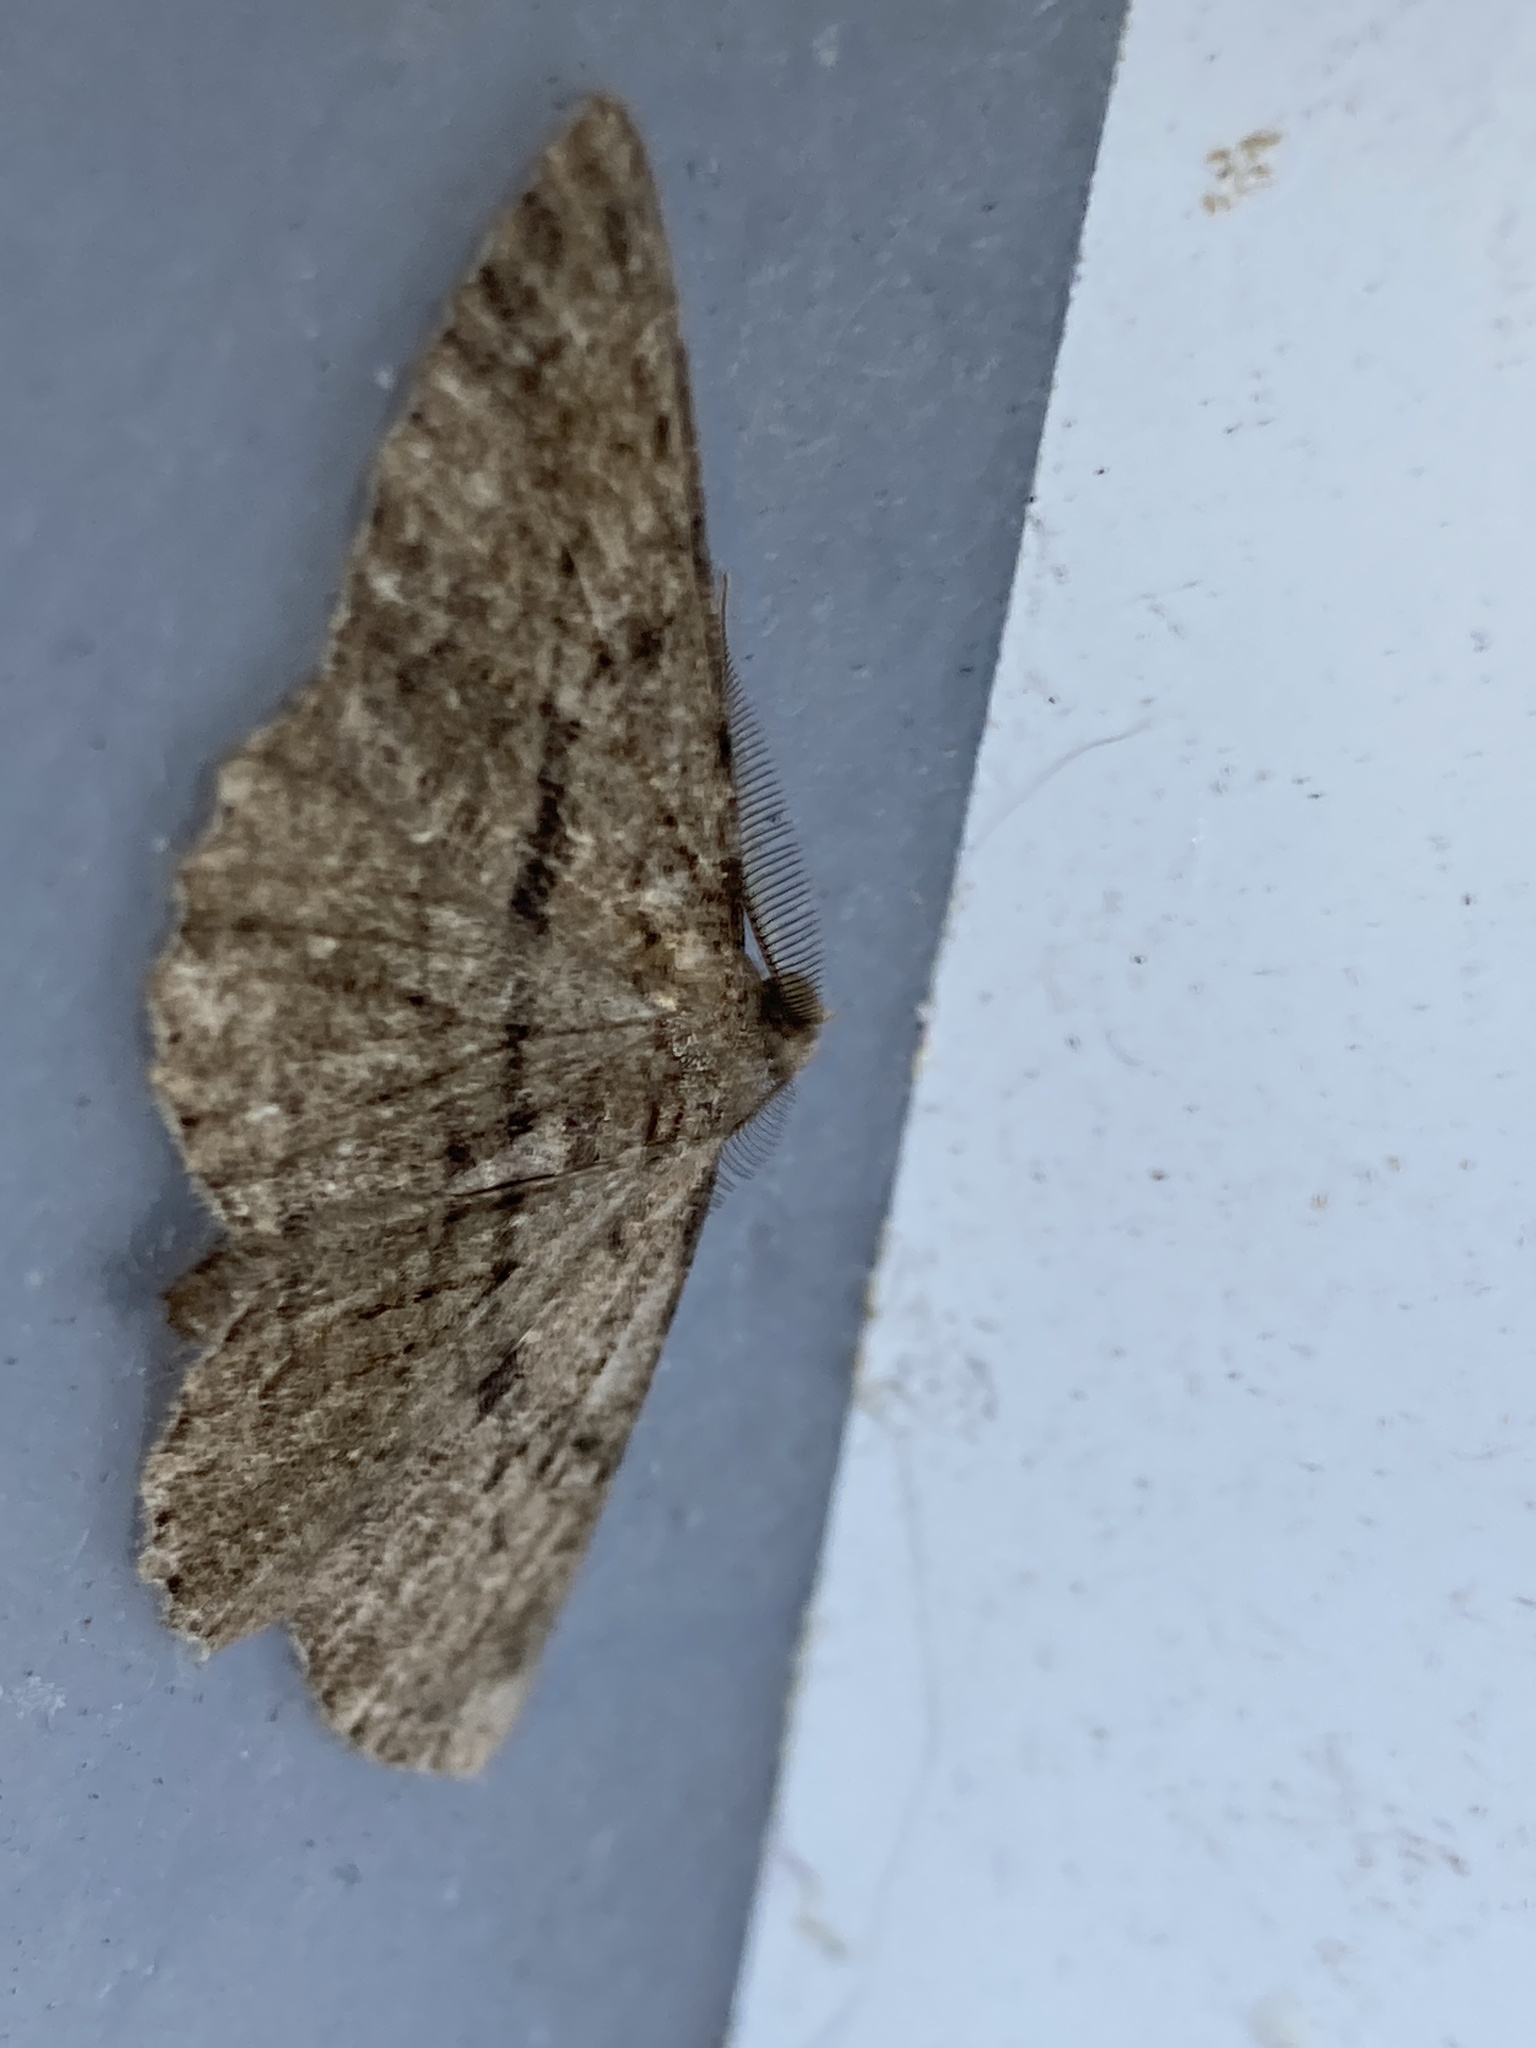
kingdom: Animalia
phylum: Arthropoda
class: Insecta
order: Lepidoptera
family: Geometridae
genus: Peribatodes
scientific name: Peribatodes rhomboidaria
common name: Willow beauty
